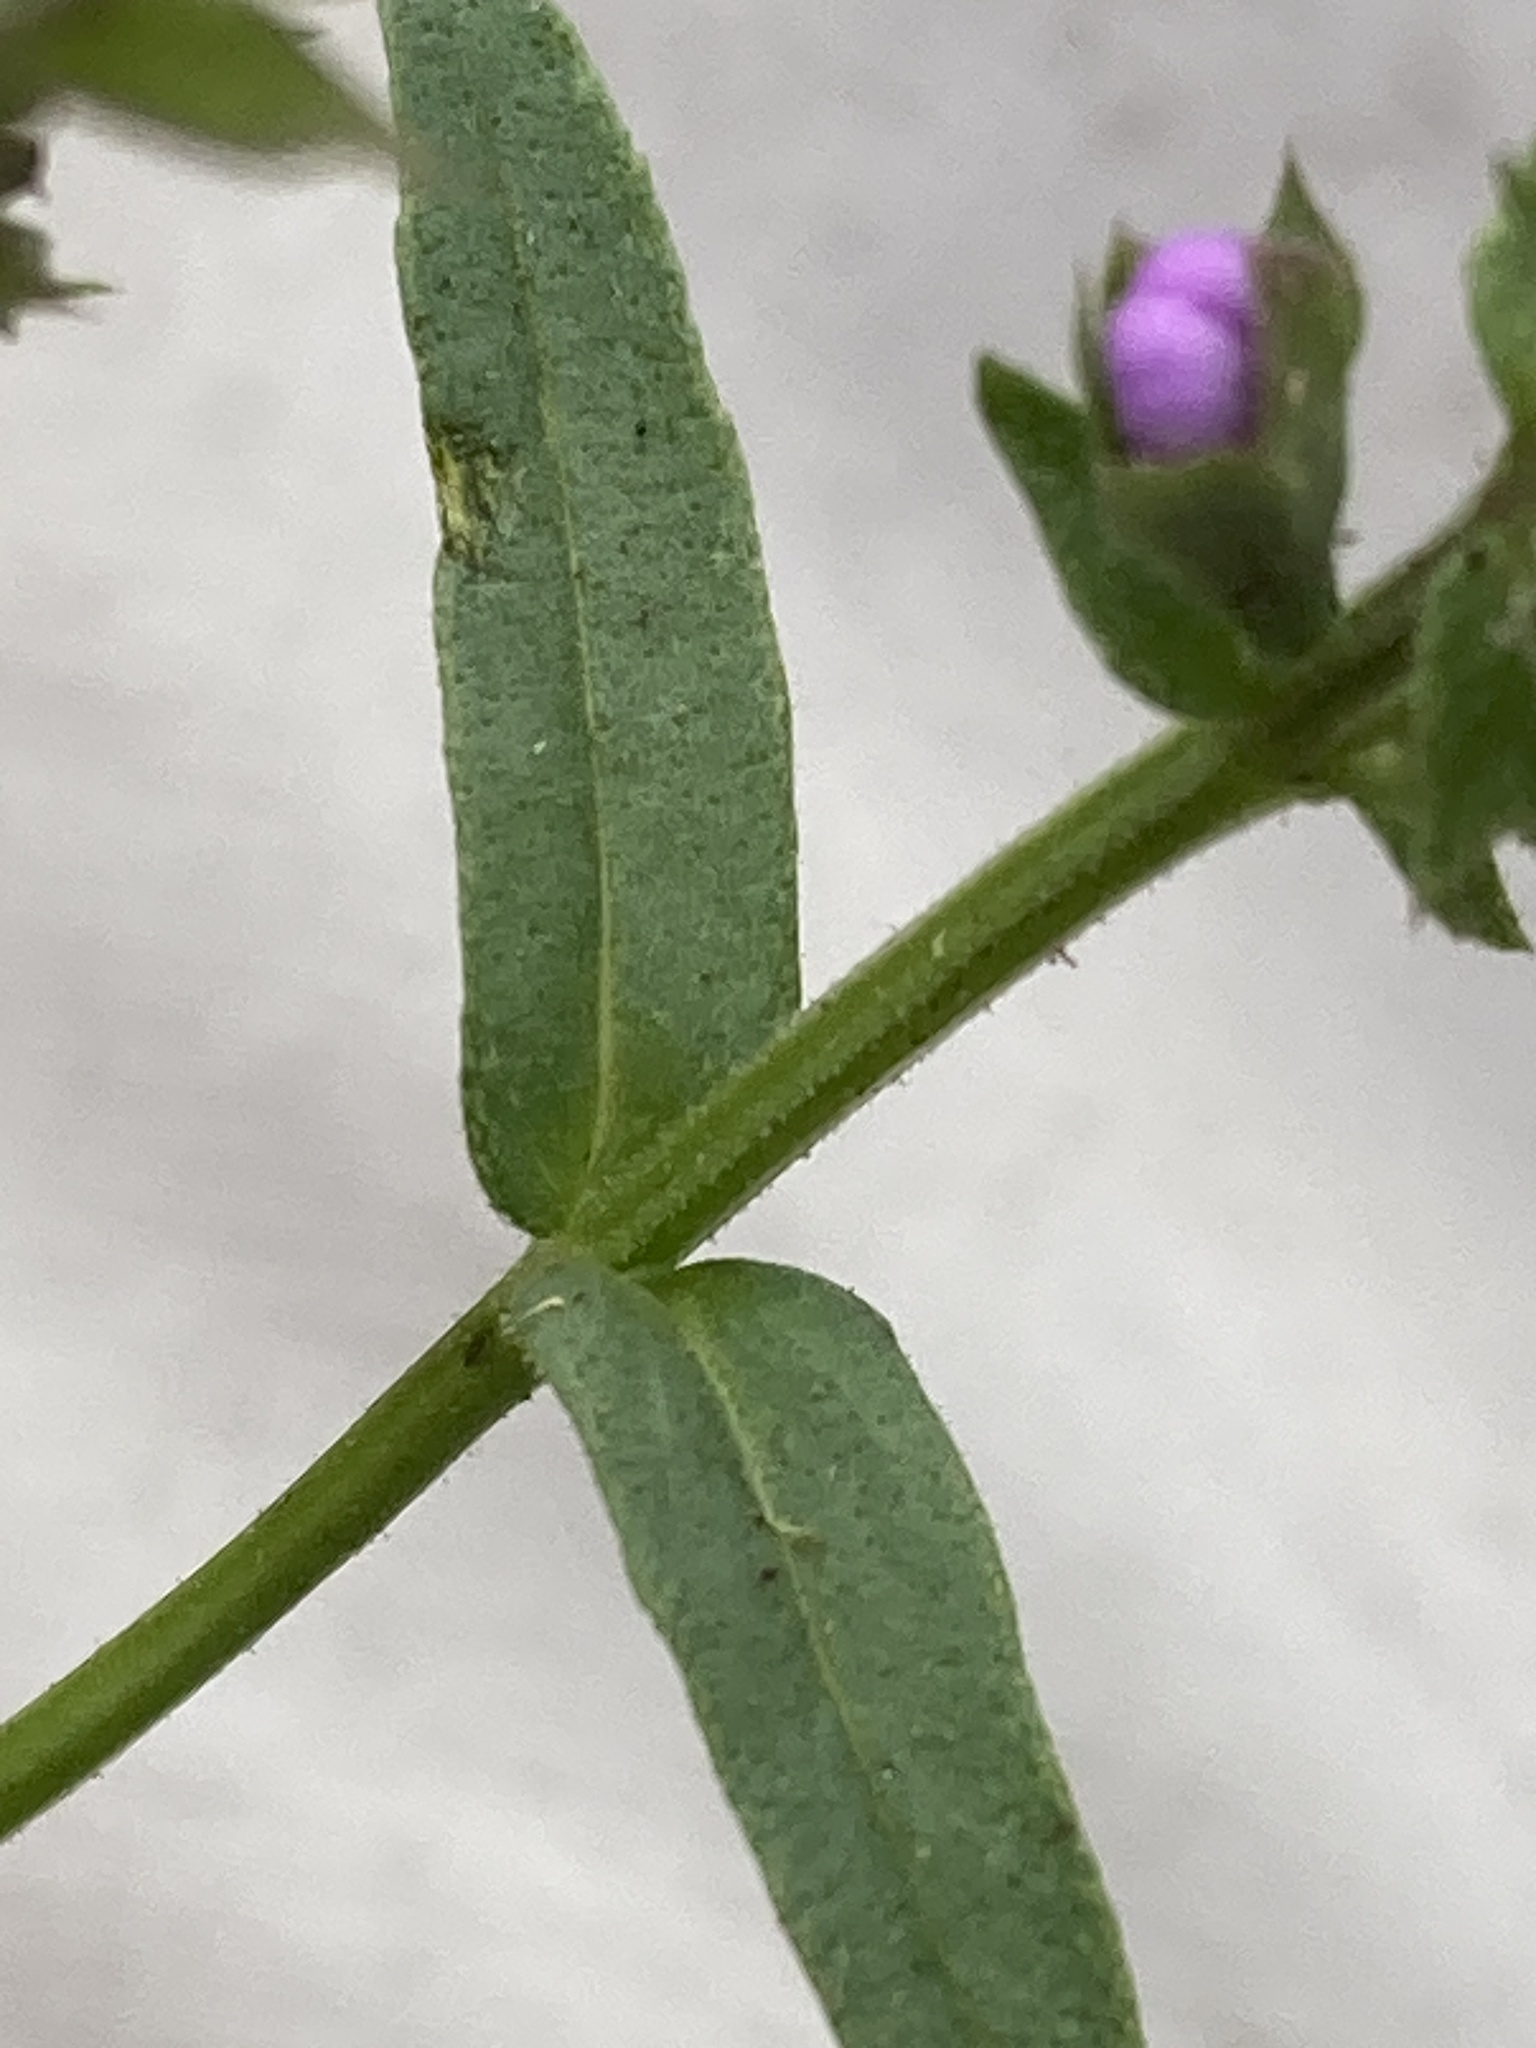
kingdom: Plantae
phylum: Tracheophyta
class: Magnoliopsida
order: Lamiales
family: Lamiaceae
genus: Warnockia
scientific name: Warnockia scutellarioides
